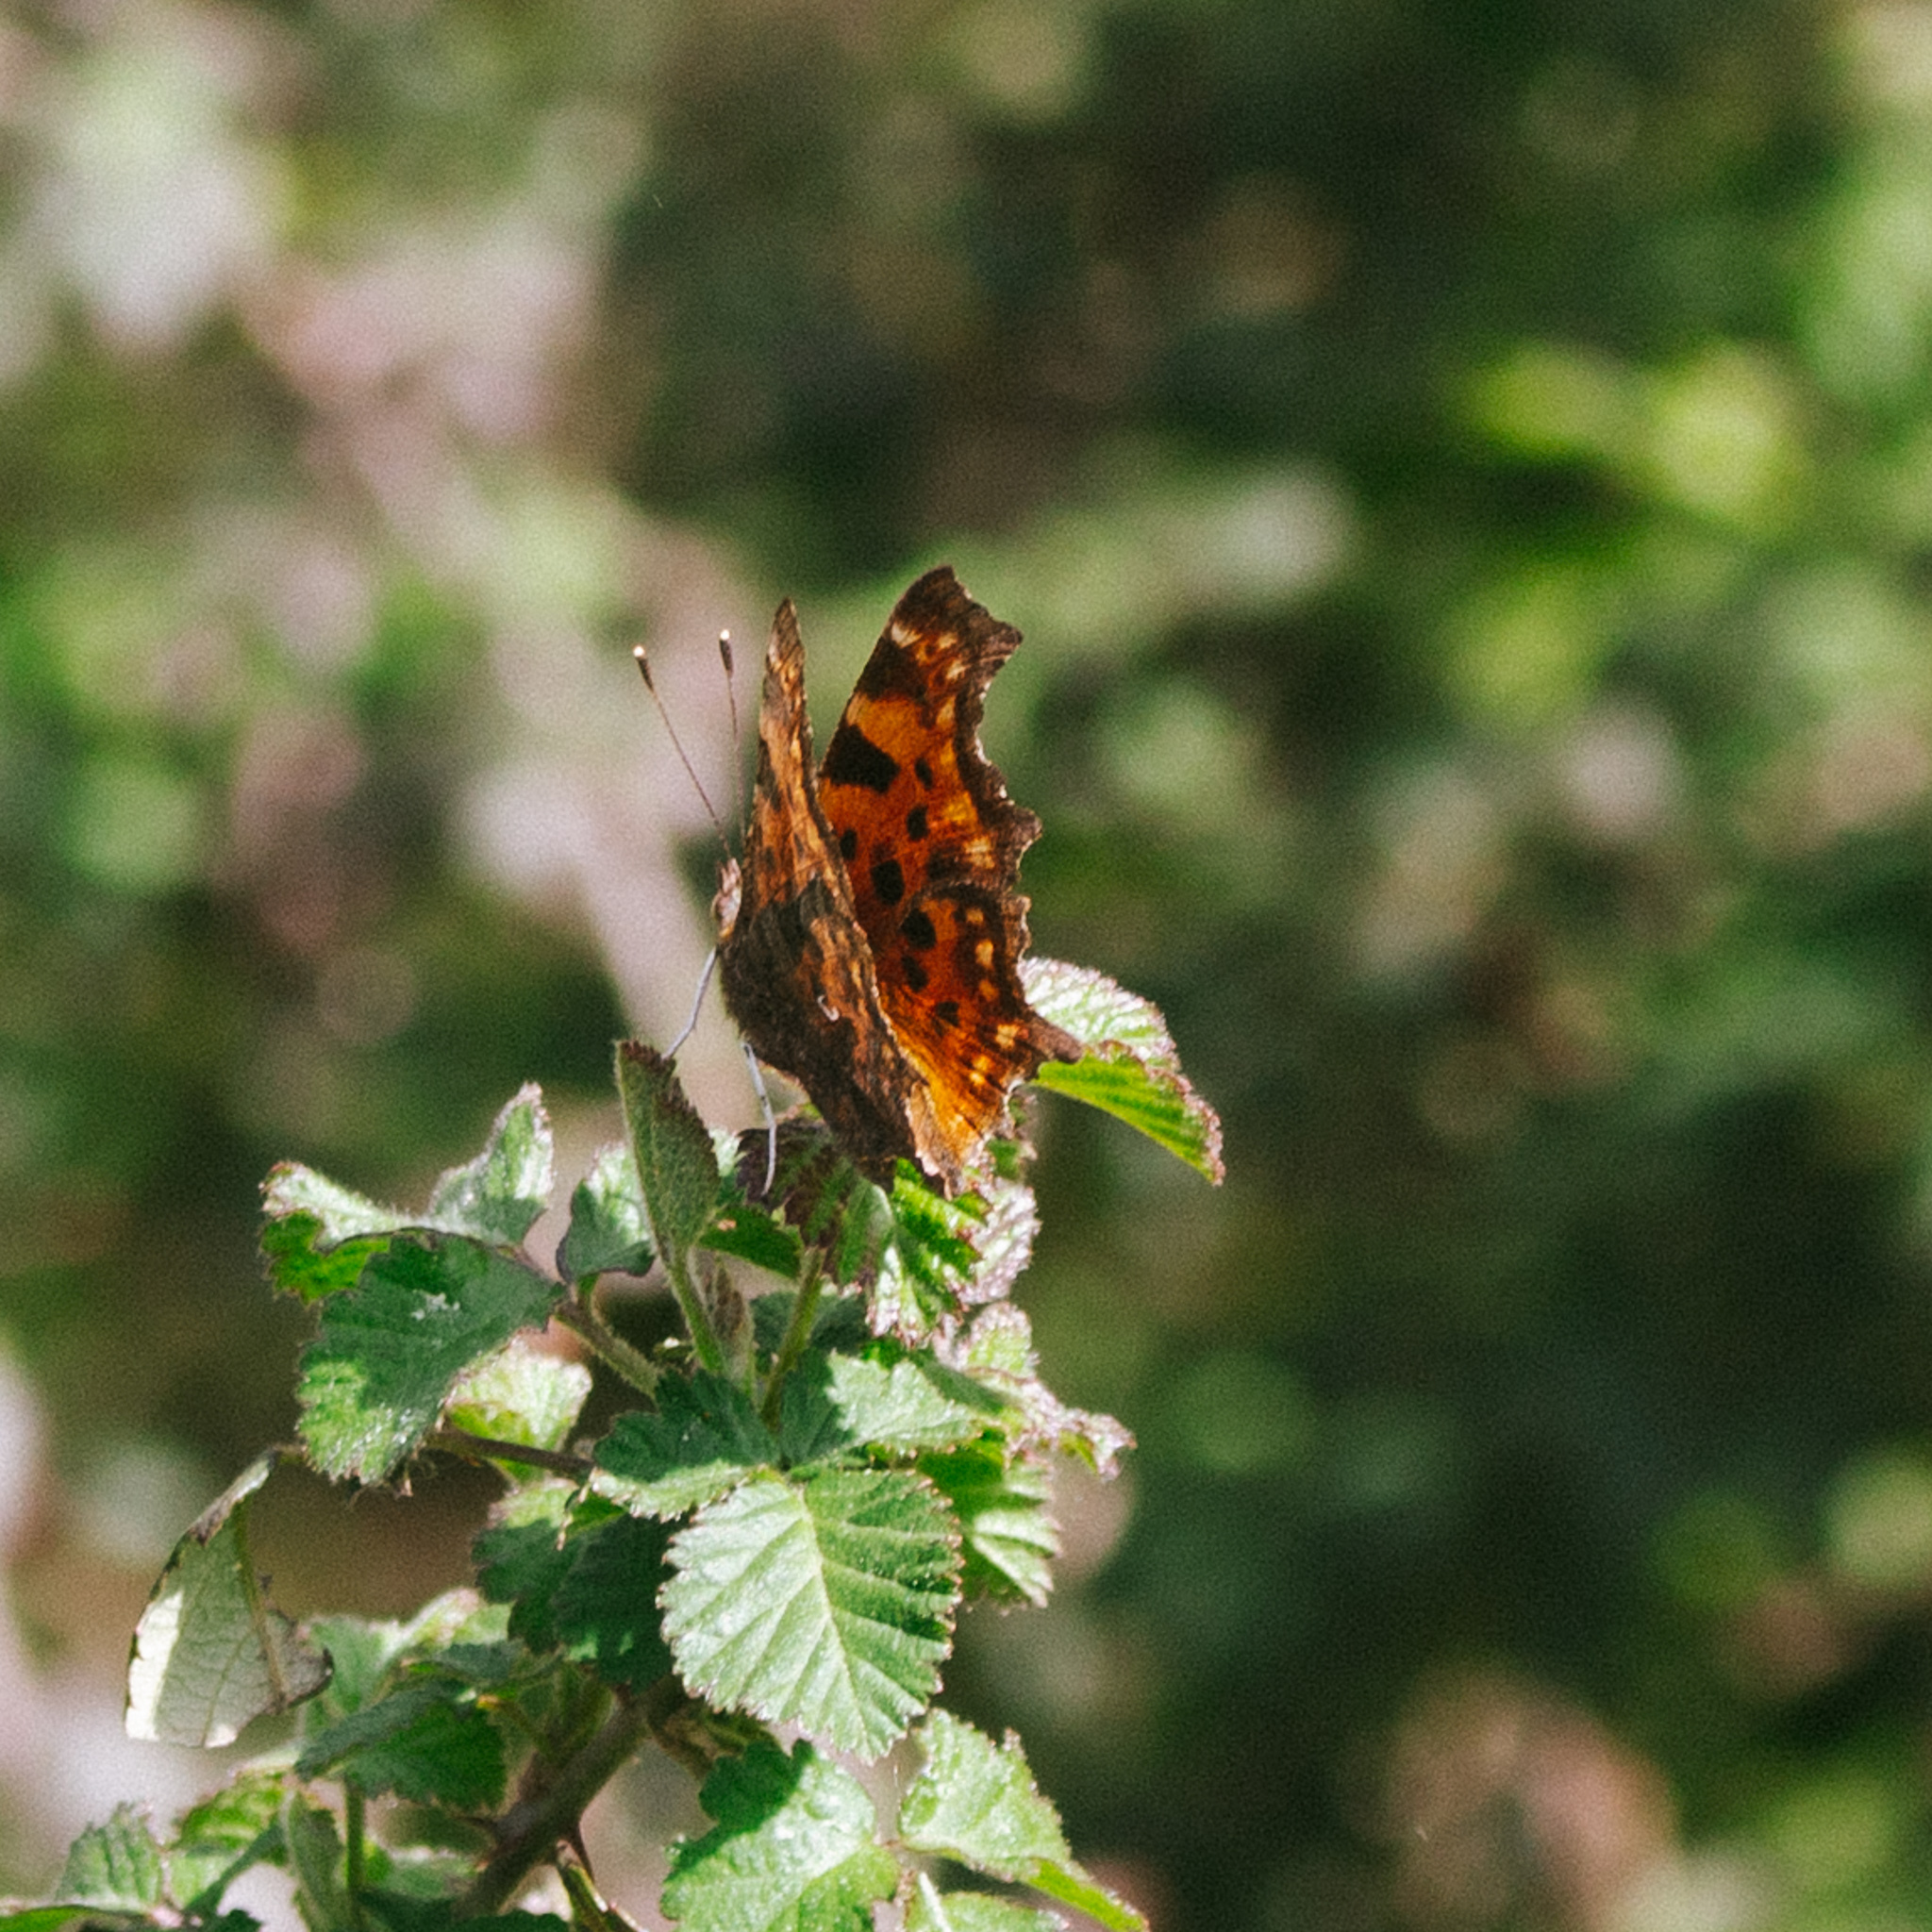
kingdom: Animalia
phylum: Arthropoda
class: Insecta
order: Lepidoptera
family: Nymphalidae
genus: Polygonia
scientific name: Polygonia c-album
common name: Comma
